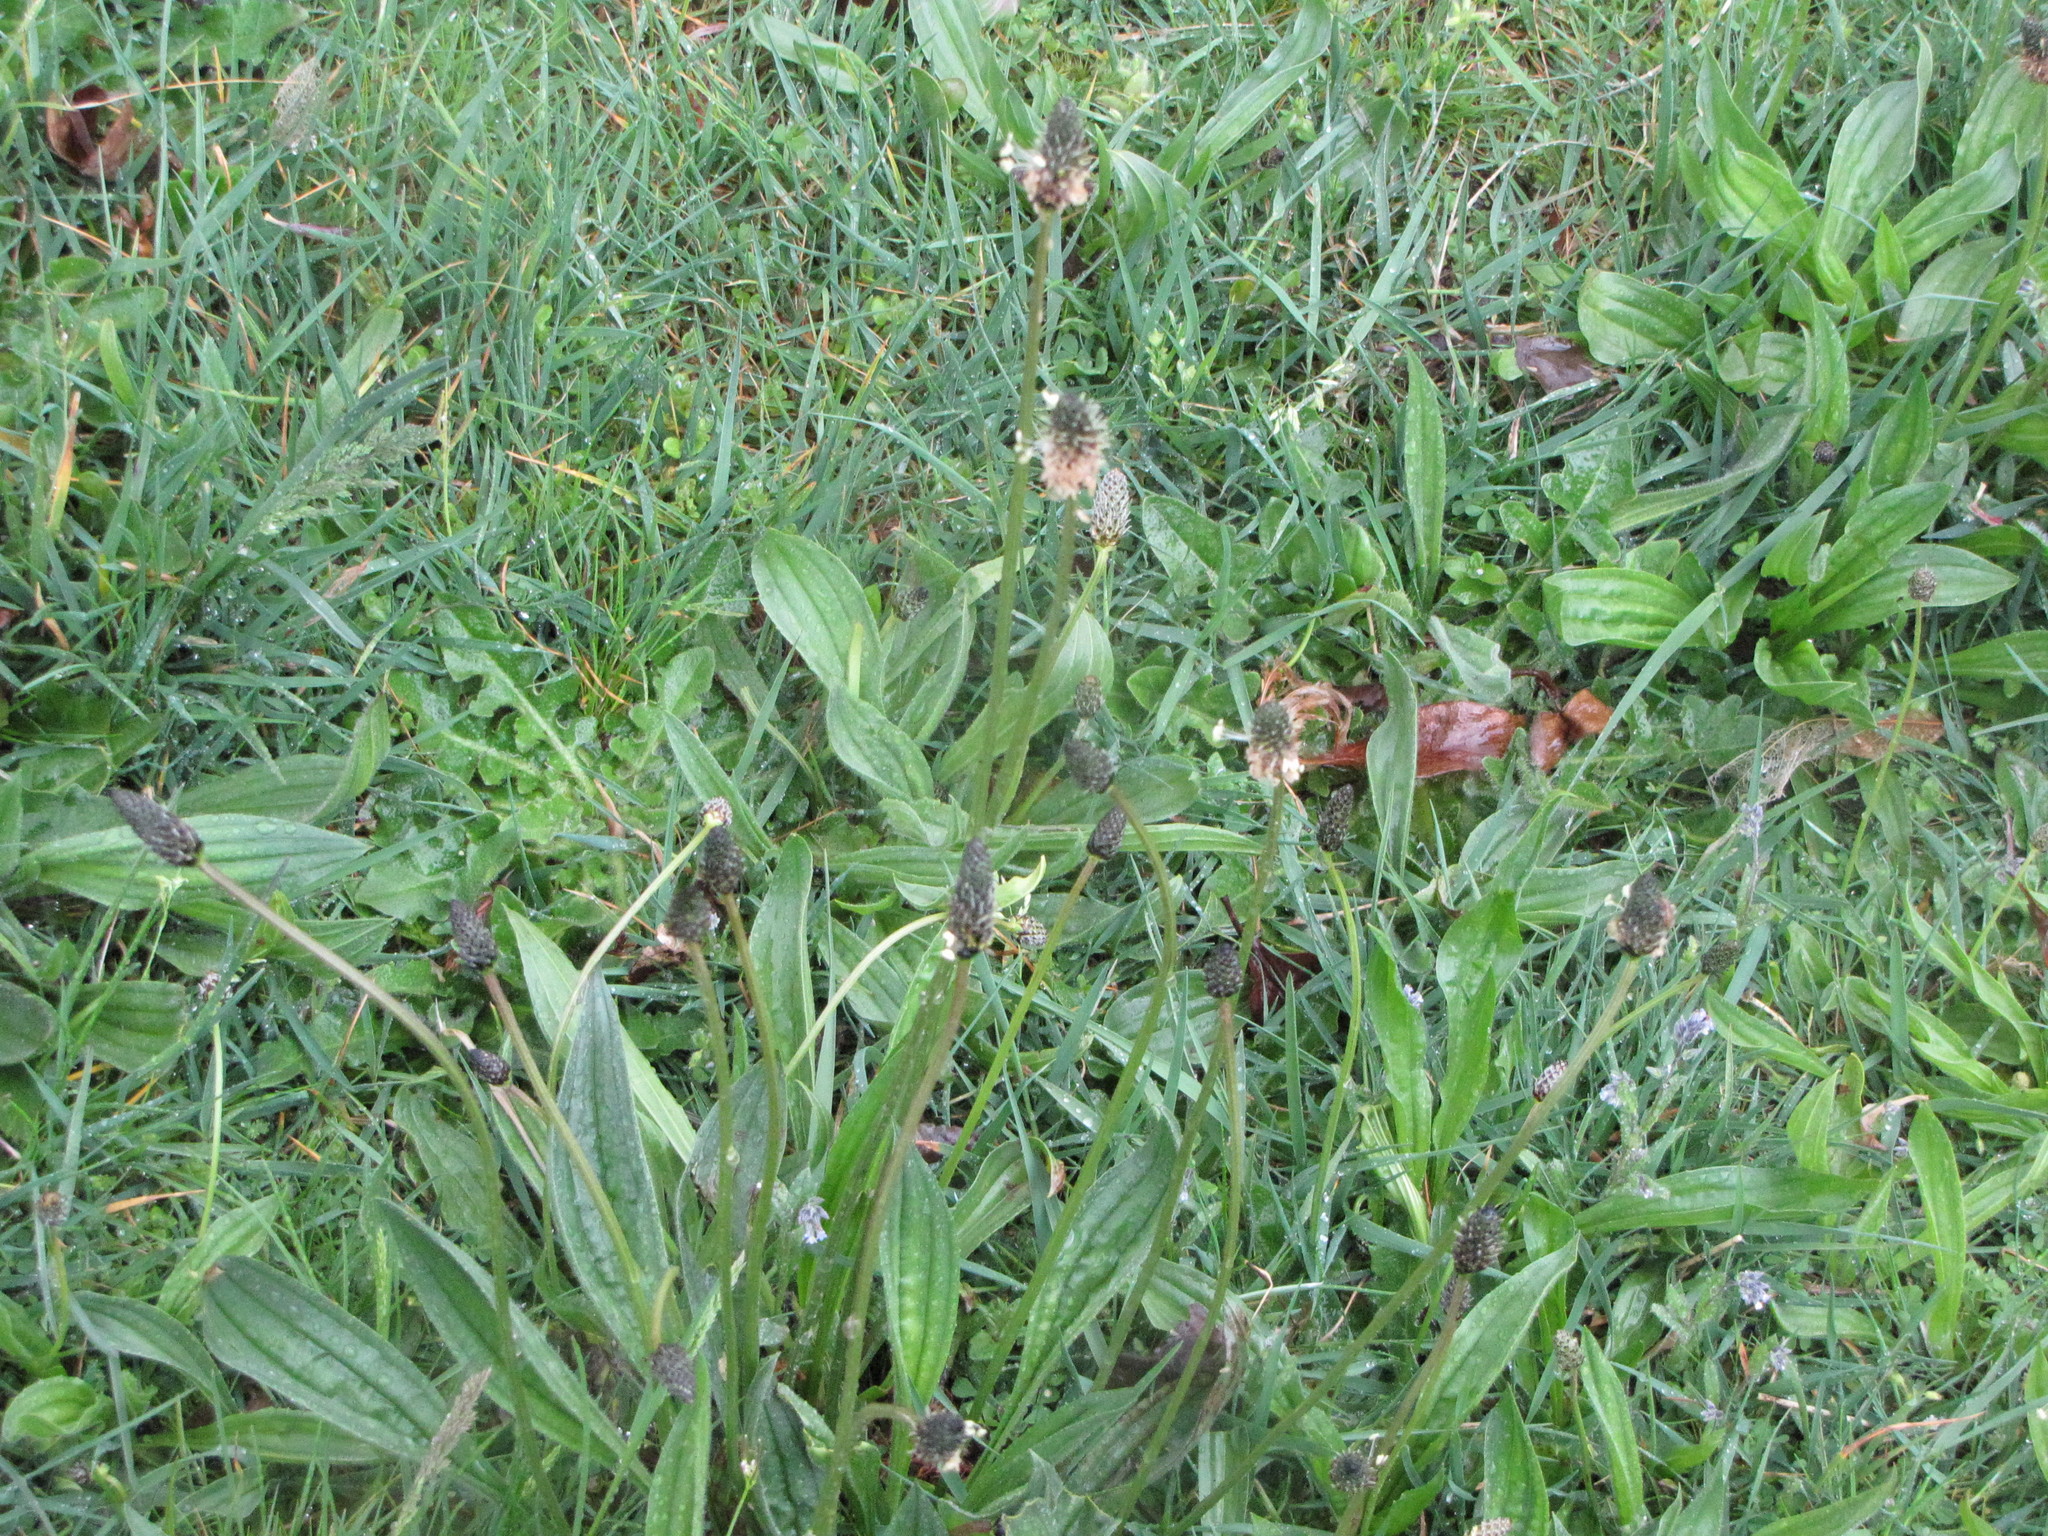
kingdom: Plantae
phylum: Tracheophyta
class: Magnoliopsida
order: Lamiales
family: Plantaginaceae
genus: Plantago
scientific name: Plantago lanceolata
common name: Ribwort plantain
